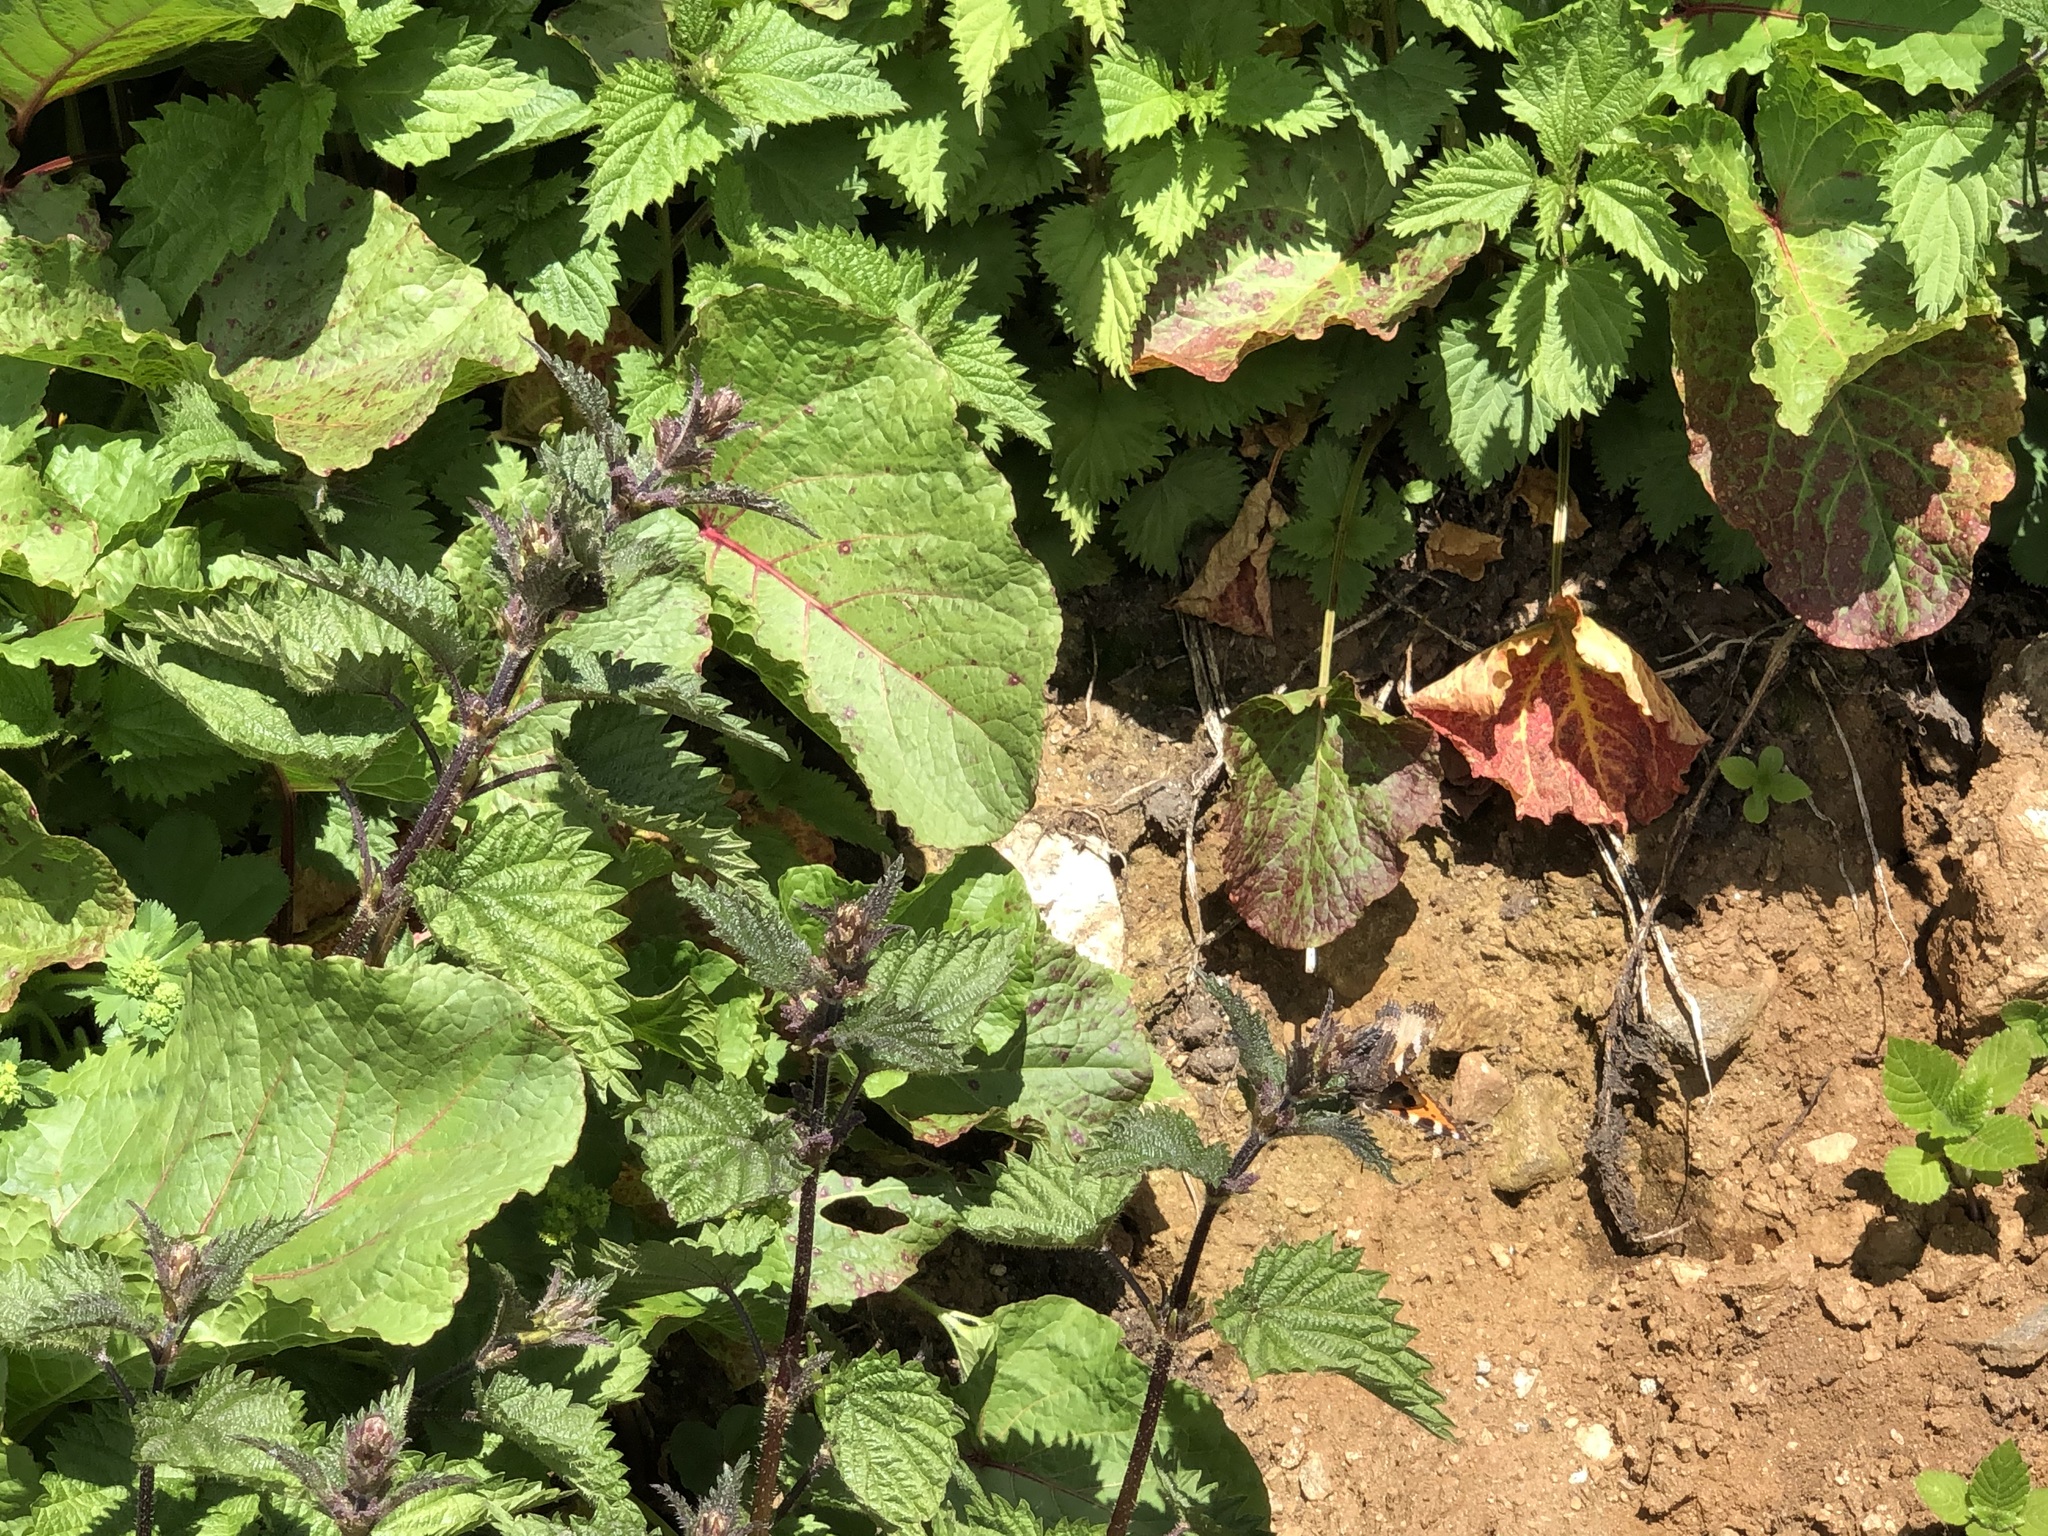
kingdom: Animalia
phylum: Arthropoda
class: Insecta
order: Lepidoptera
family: Nymphalidae
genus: Aglais
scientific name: Aglais urticae
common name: Small tortoiseshell
